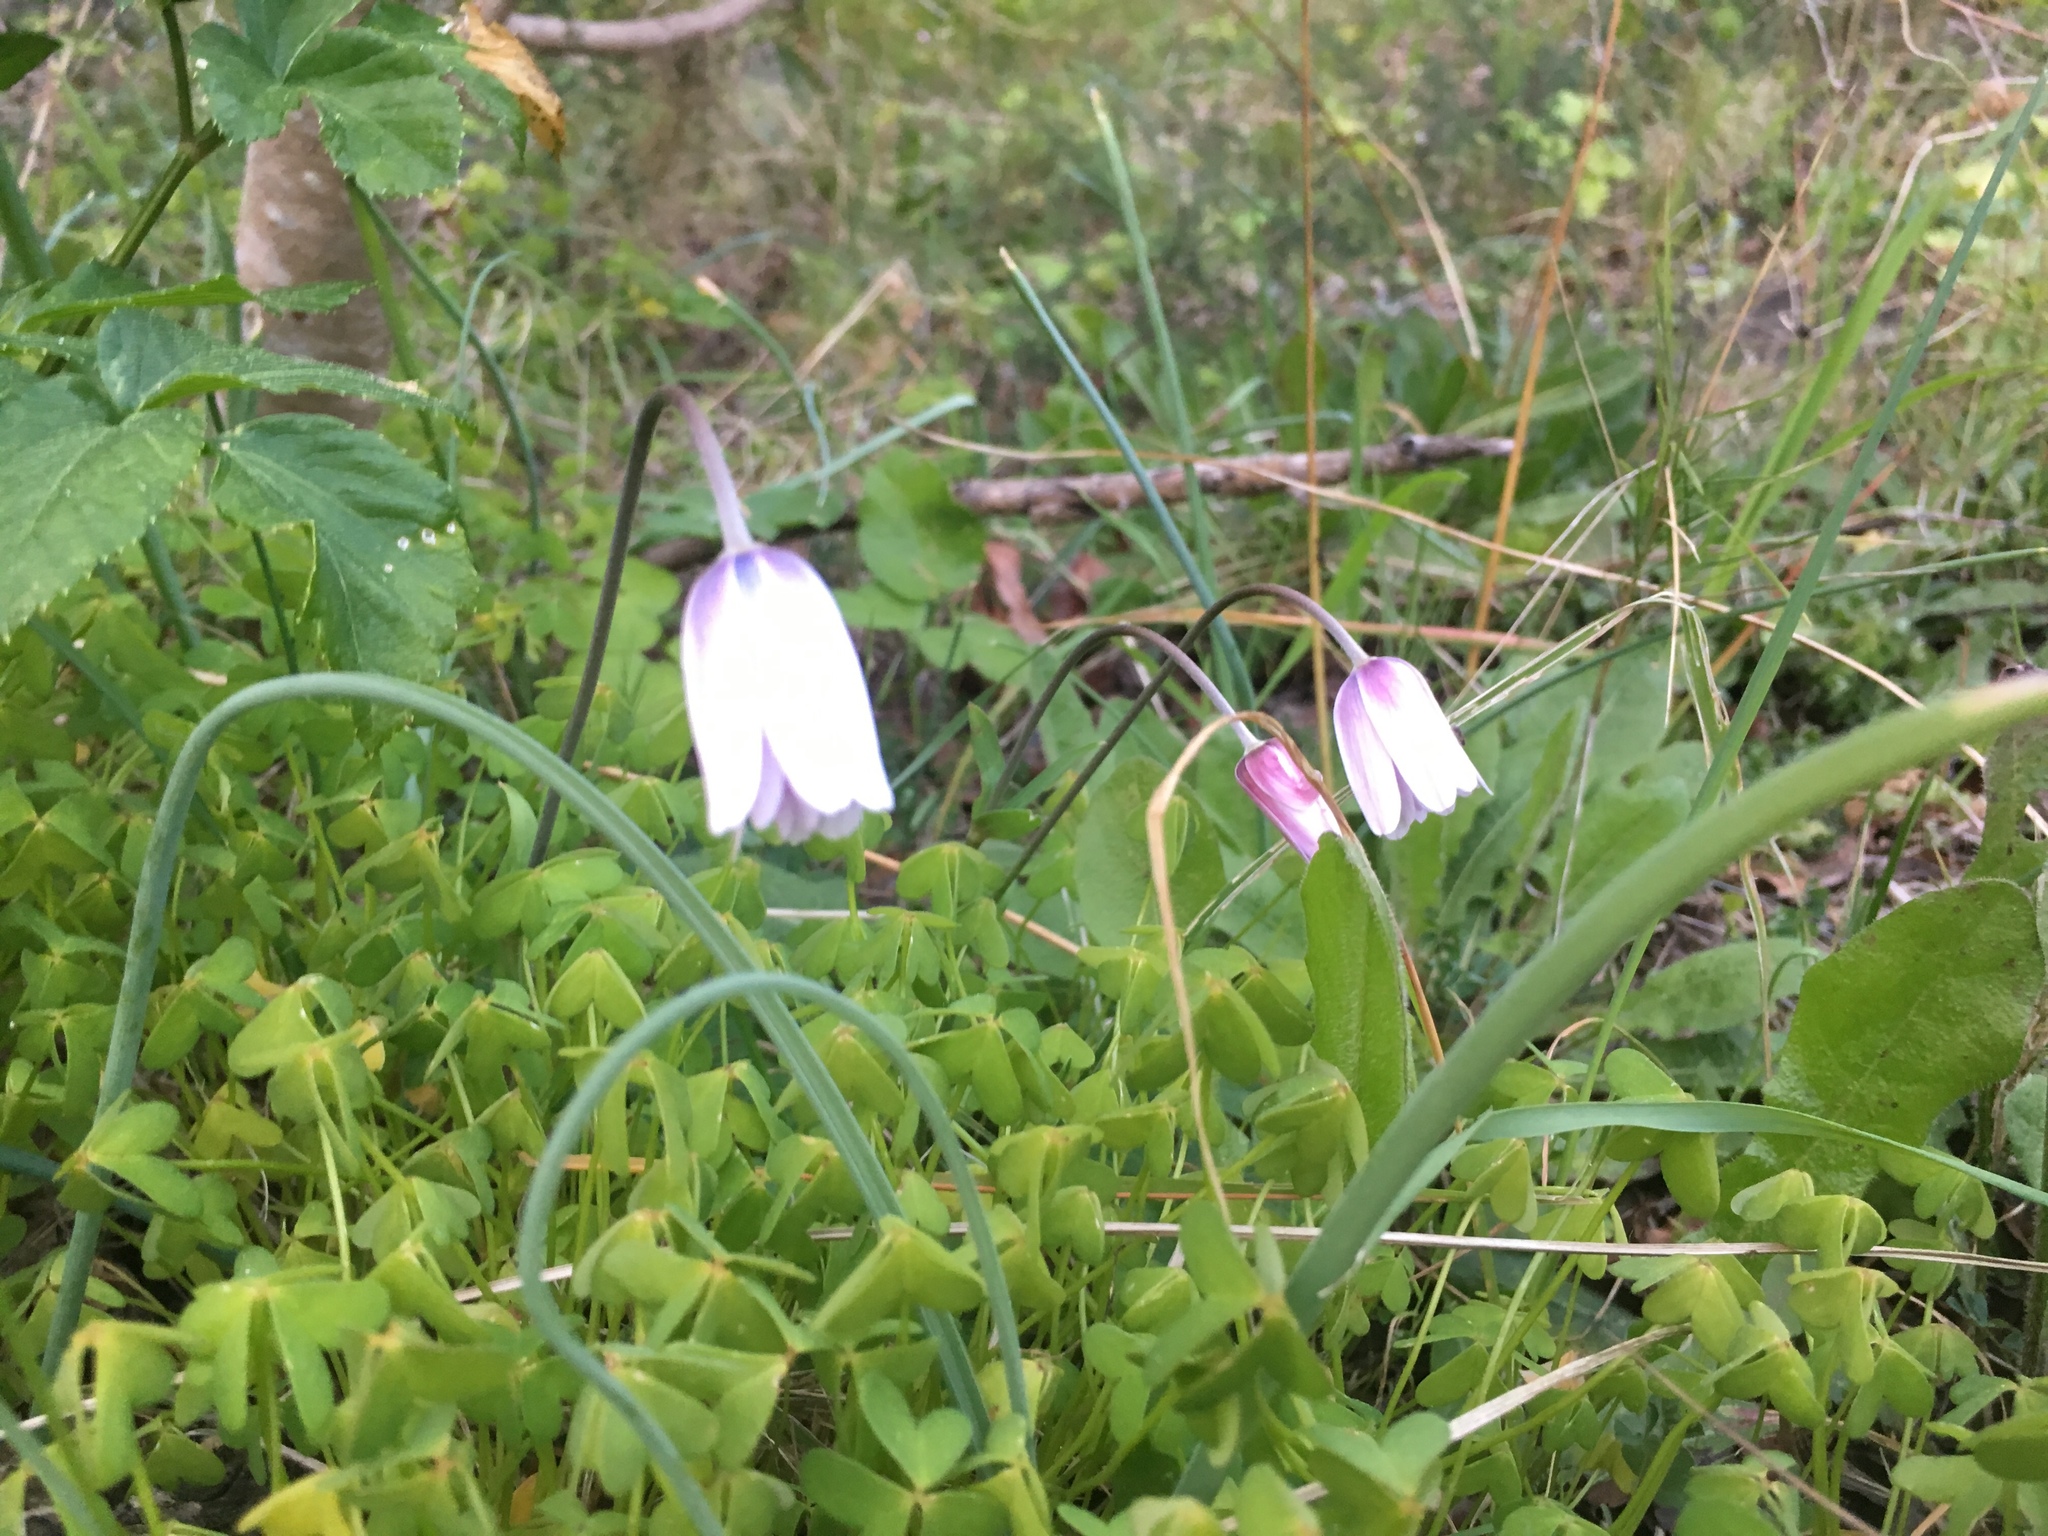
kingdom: Plantae
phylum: Tracheophyta
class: Magnoliopsida
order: Ranunculales
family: Ranunculaceae
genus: Anemone
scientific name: Anemone hortensis
